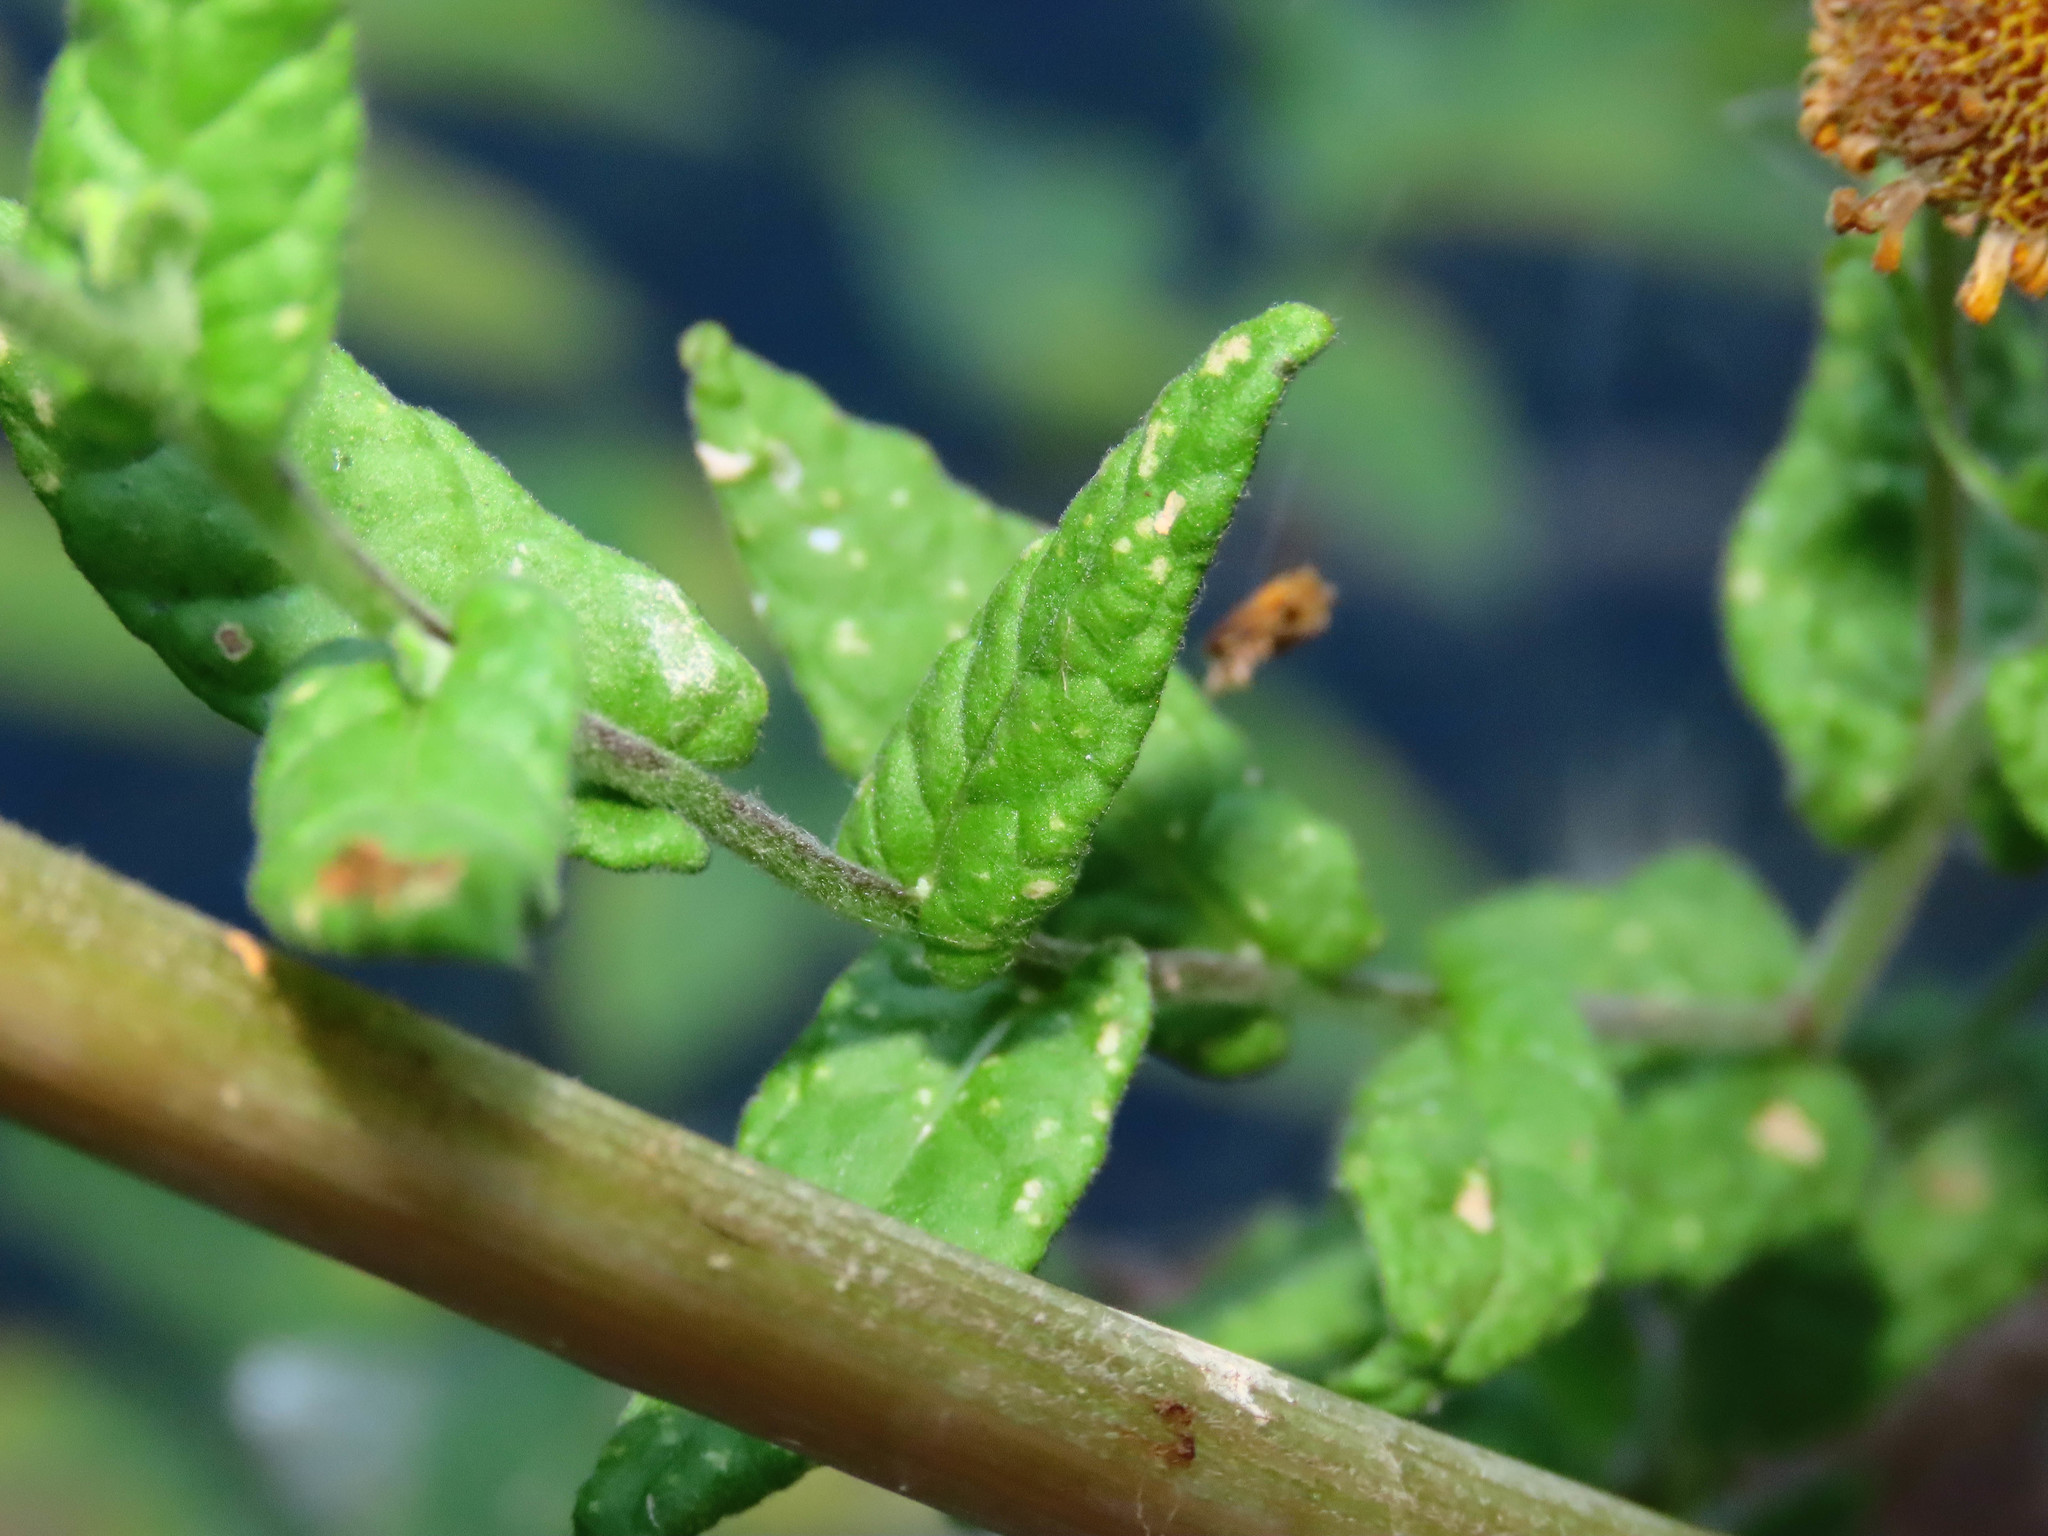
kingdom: Plantae
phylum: Tracheophyta
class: Magnoliopsida
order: Asterales
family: Asteraceae
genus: Pulicaria
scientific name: Pulicaria dysenterica
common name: Common fleabane
